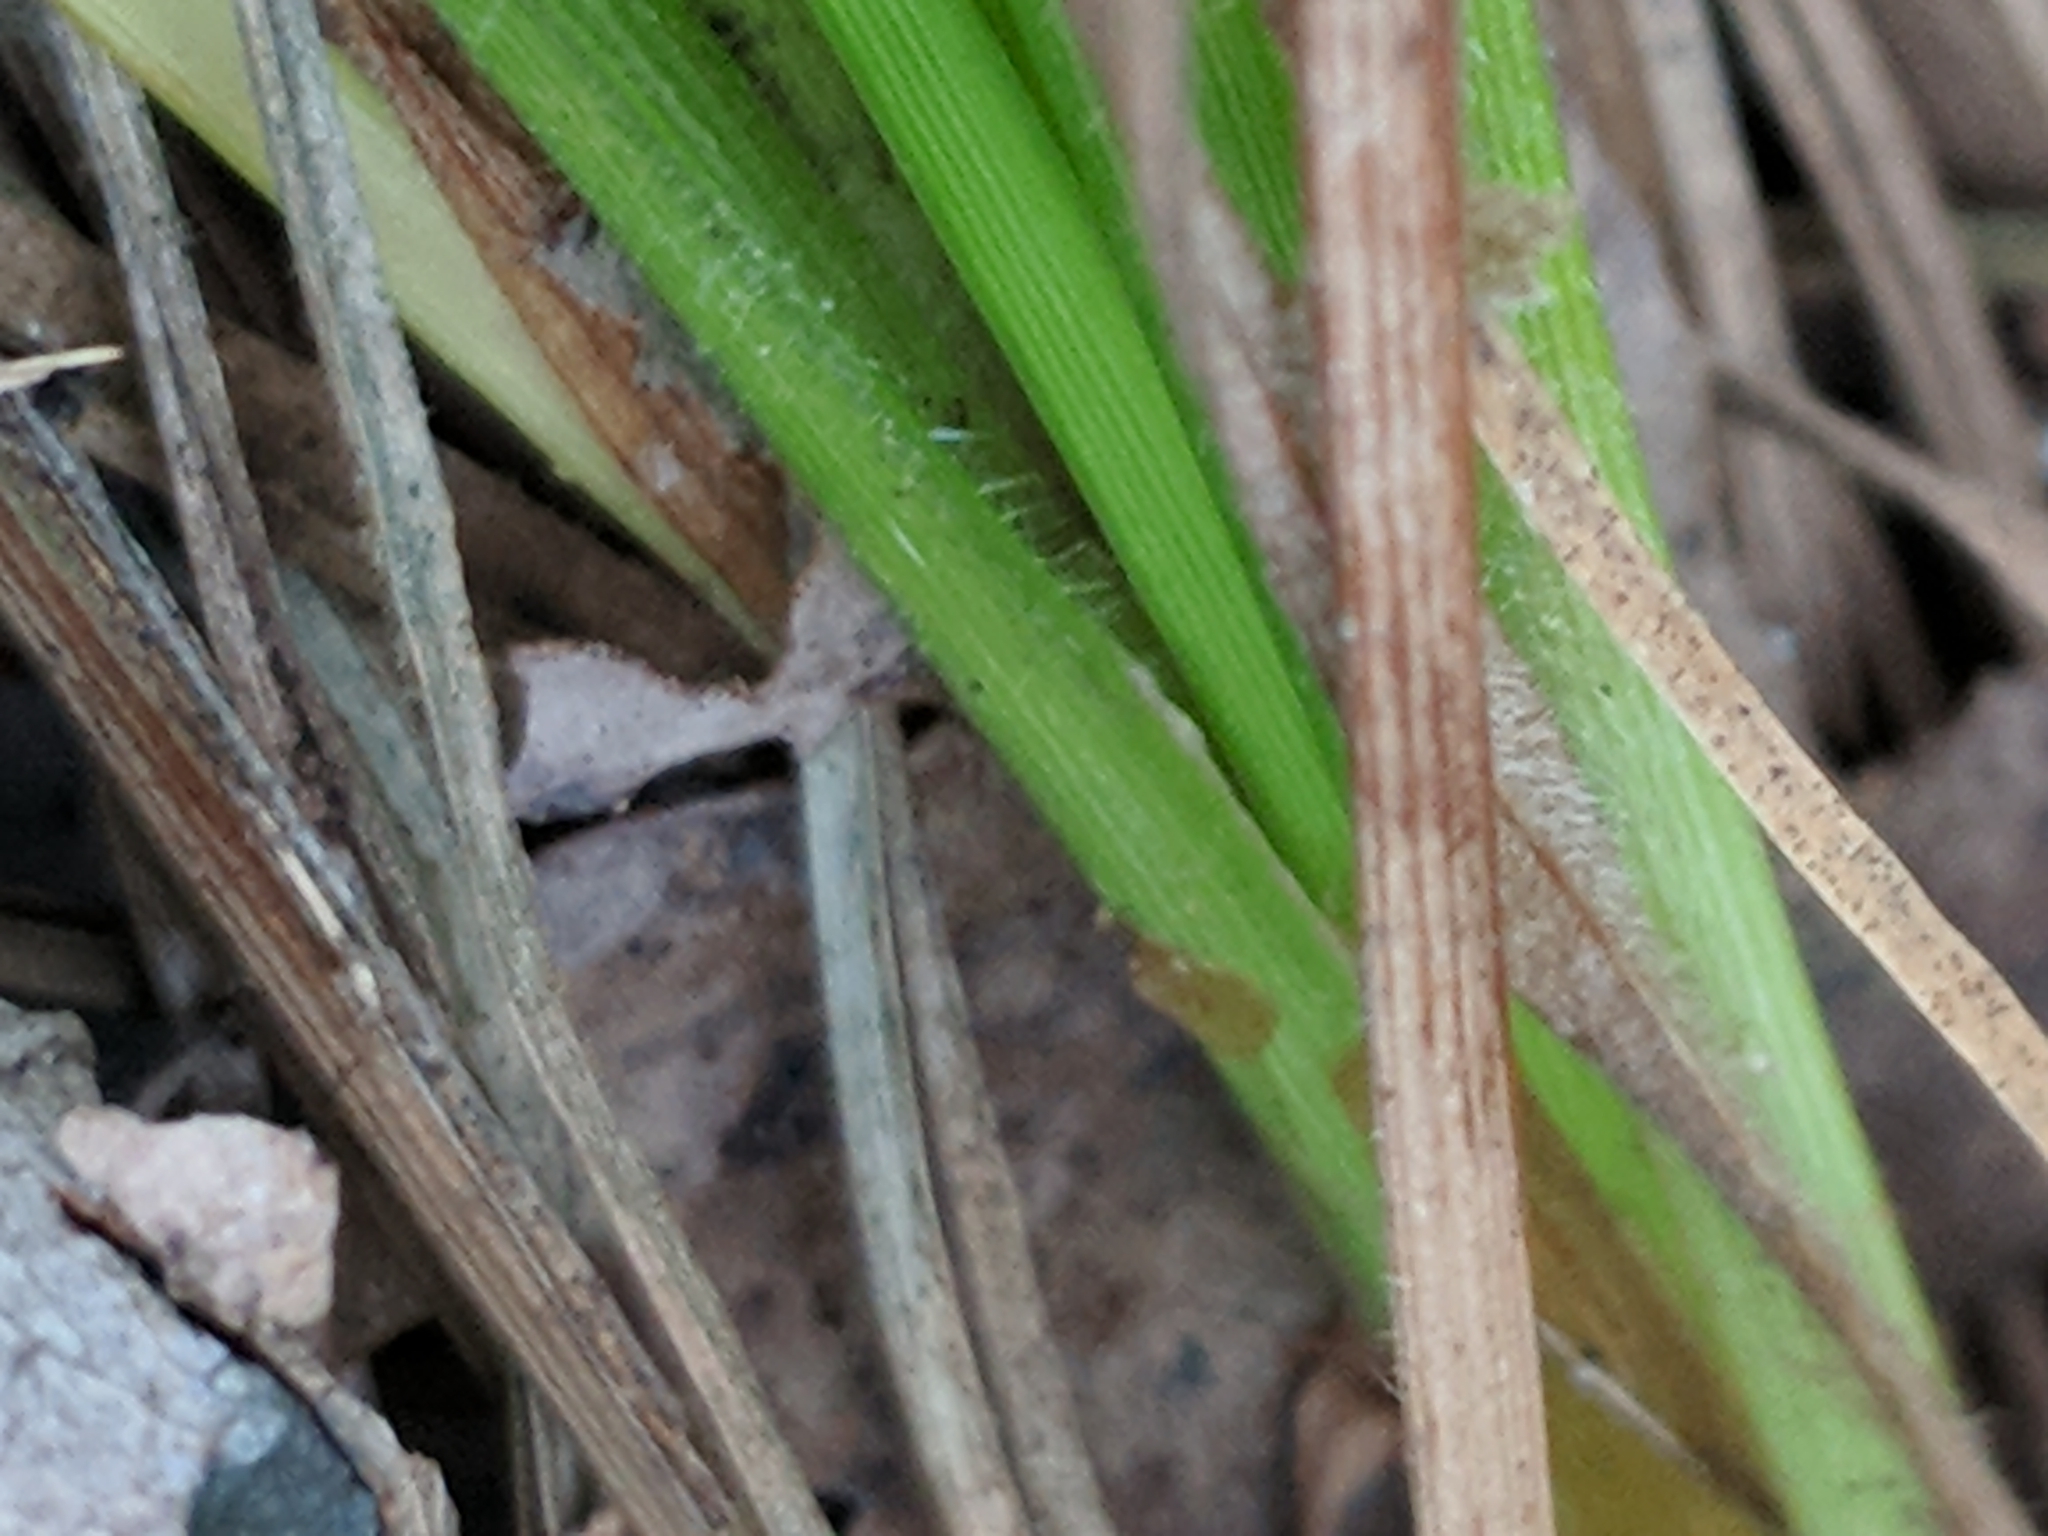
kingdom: Plantae
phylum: Tracheophyta
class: Liliopsida
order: Poales
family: Cyperaceae
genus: Carex
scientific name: Carex swanii
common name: Downy green sedge
